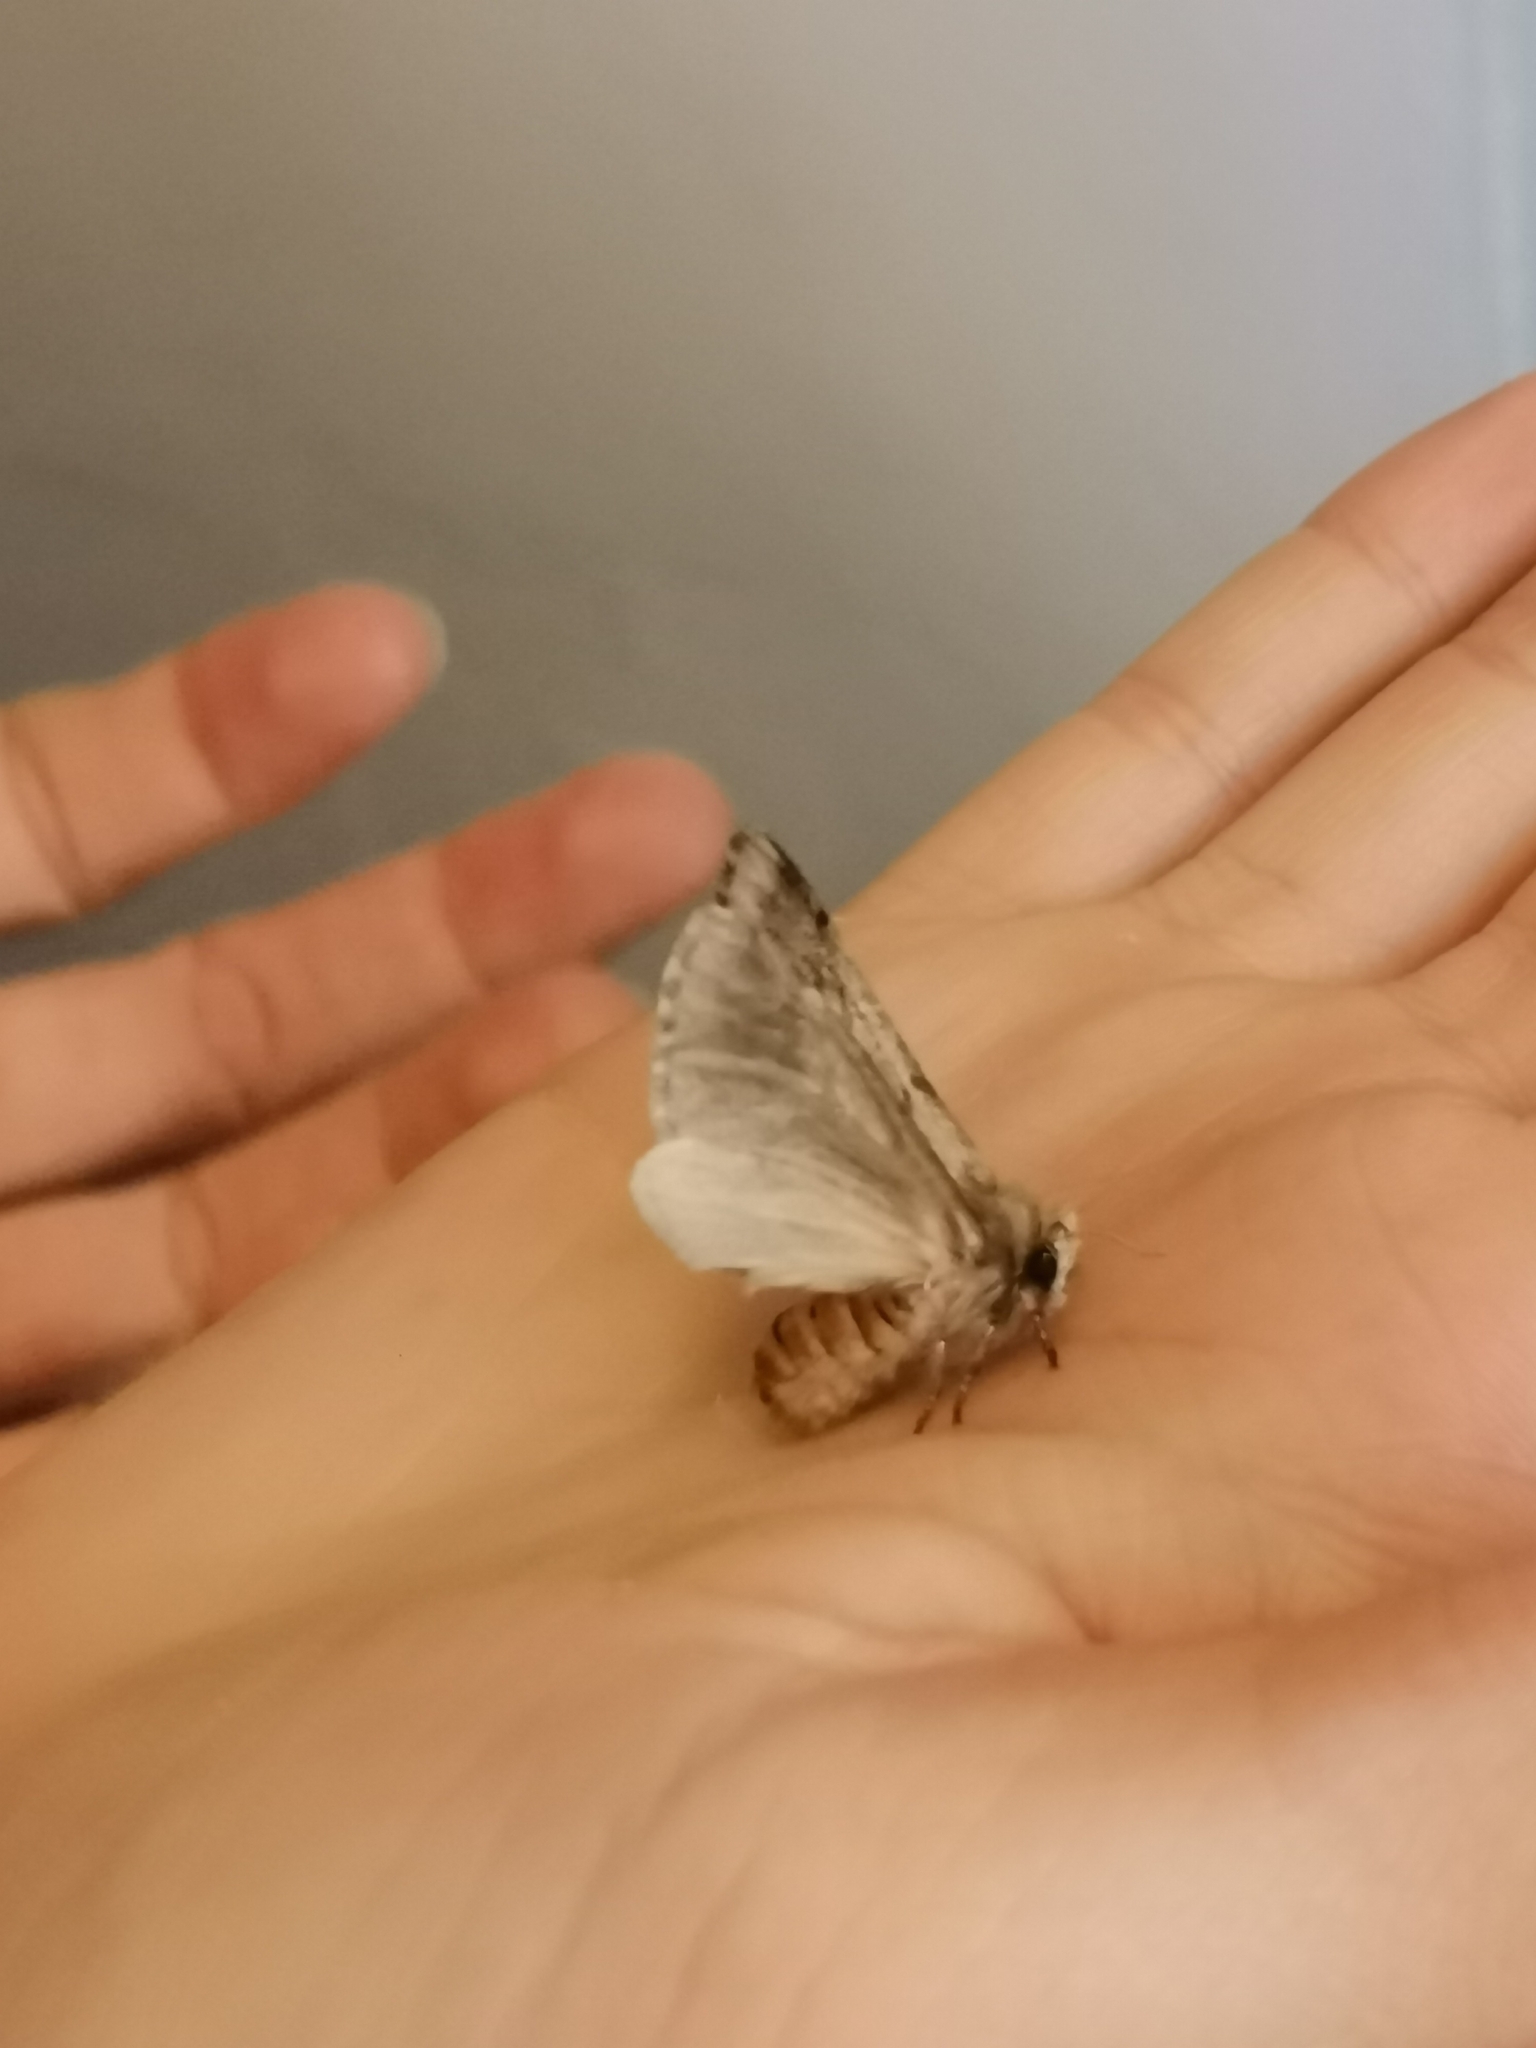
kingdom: Animalia
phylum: Arthropoda
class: Insecta
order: Lepidoptera
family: Notodontidae
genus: Thaumetopoea
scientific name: Thaumetopoea pityocampa
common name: Pine processionary
